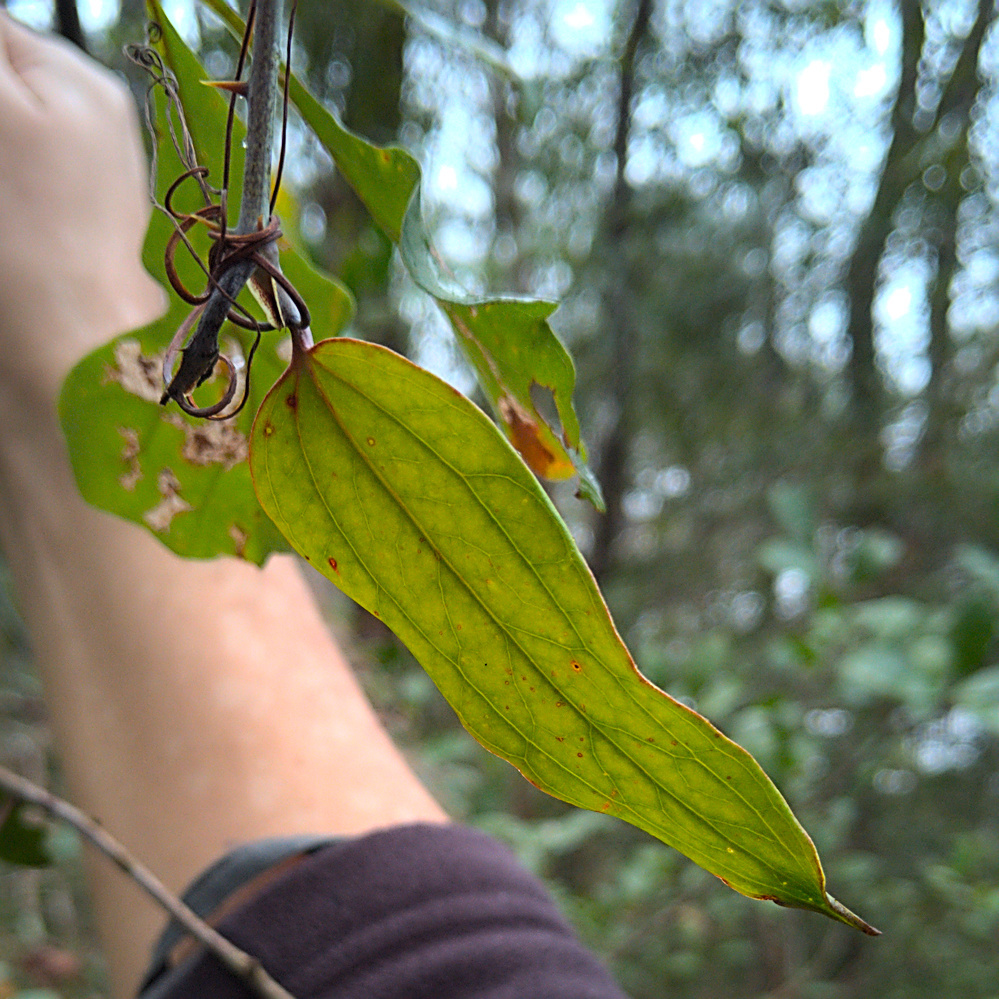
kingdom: Plantae
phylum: Tracheophyta
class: Liliopsida
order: Liliales
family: Smilacaceae
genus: Smilax
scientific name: Smilax glauca
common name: Cat greenbrier
